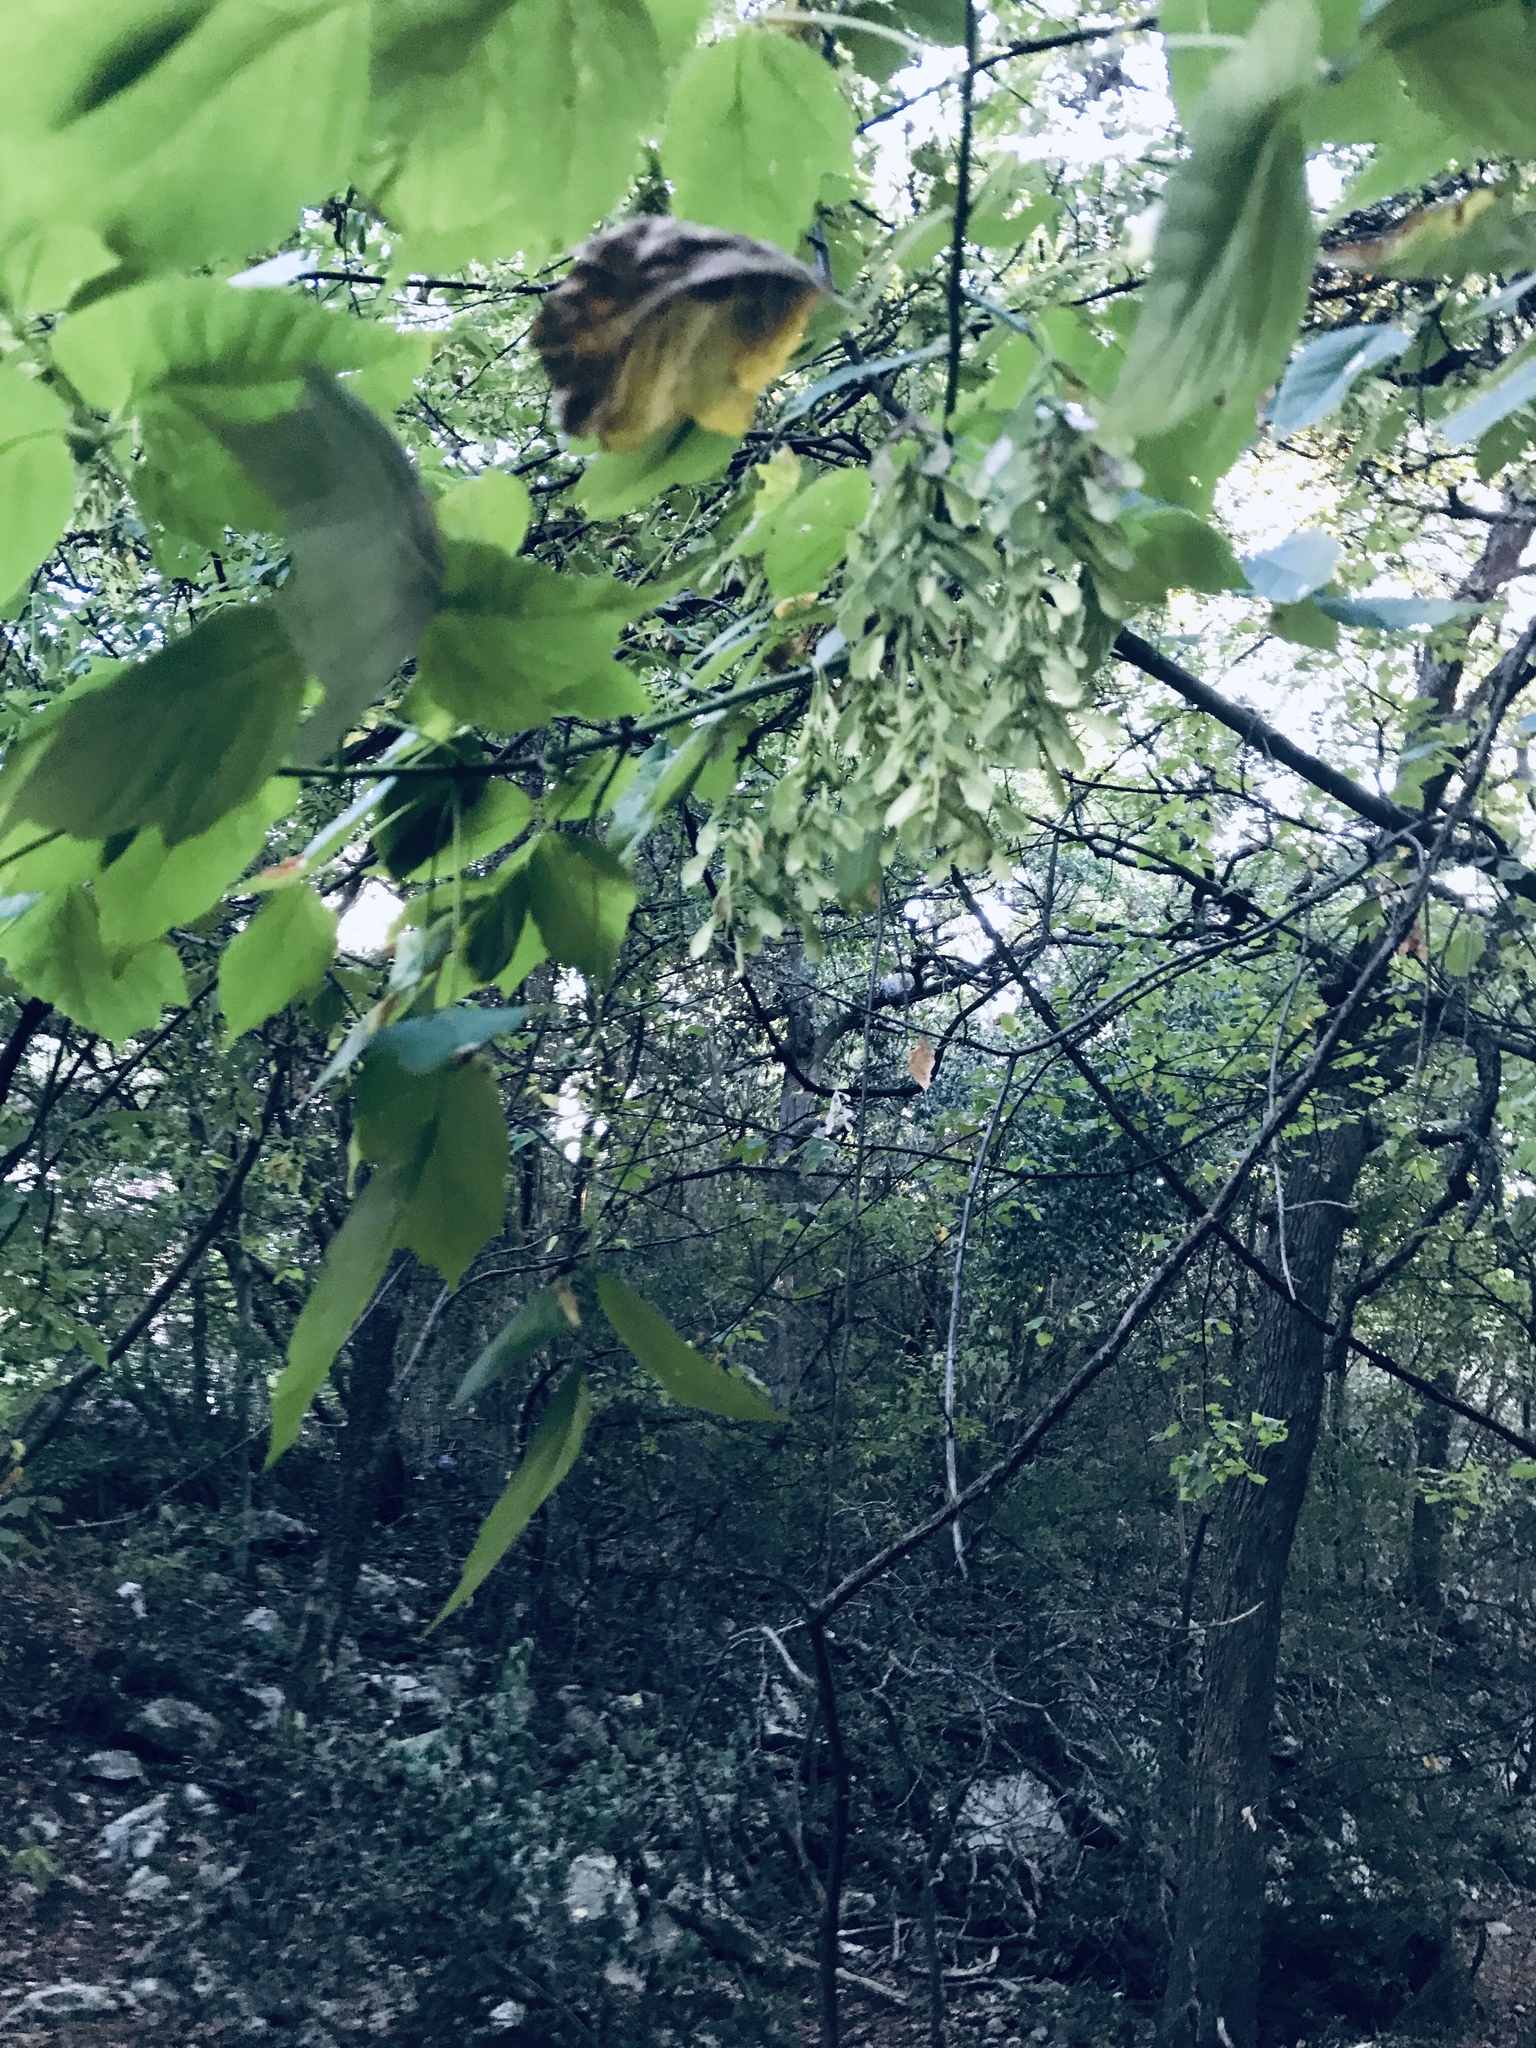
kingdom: Plantae
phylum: Tracheophyta
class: Magnoliopsida
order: Sapindales
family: Sapindaceae
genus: Acer
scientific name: Acer negundo
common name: Ashleaf maple
